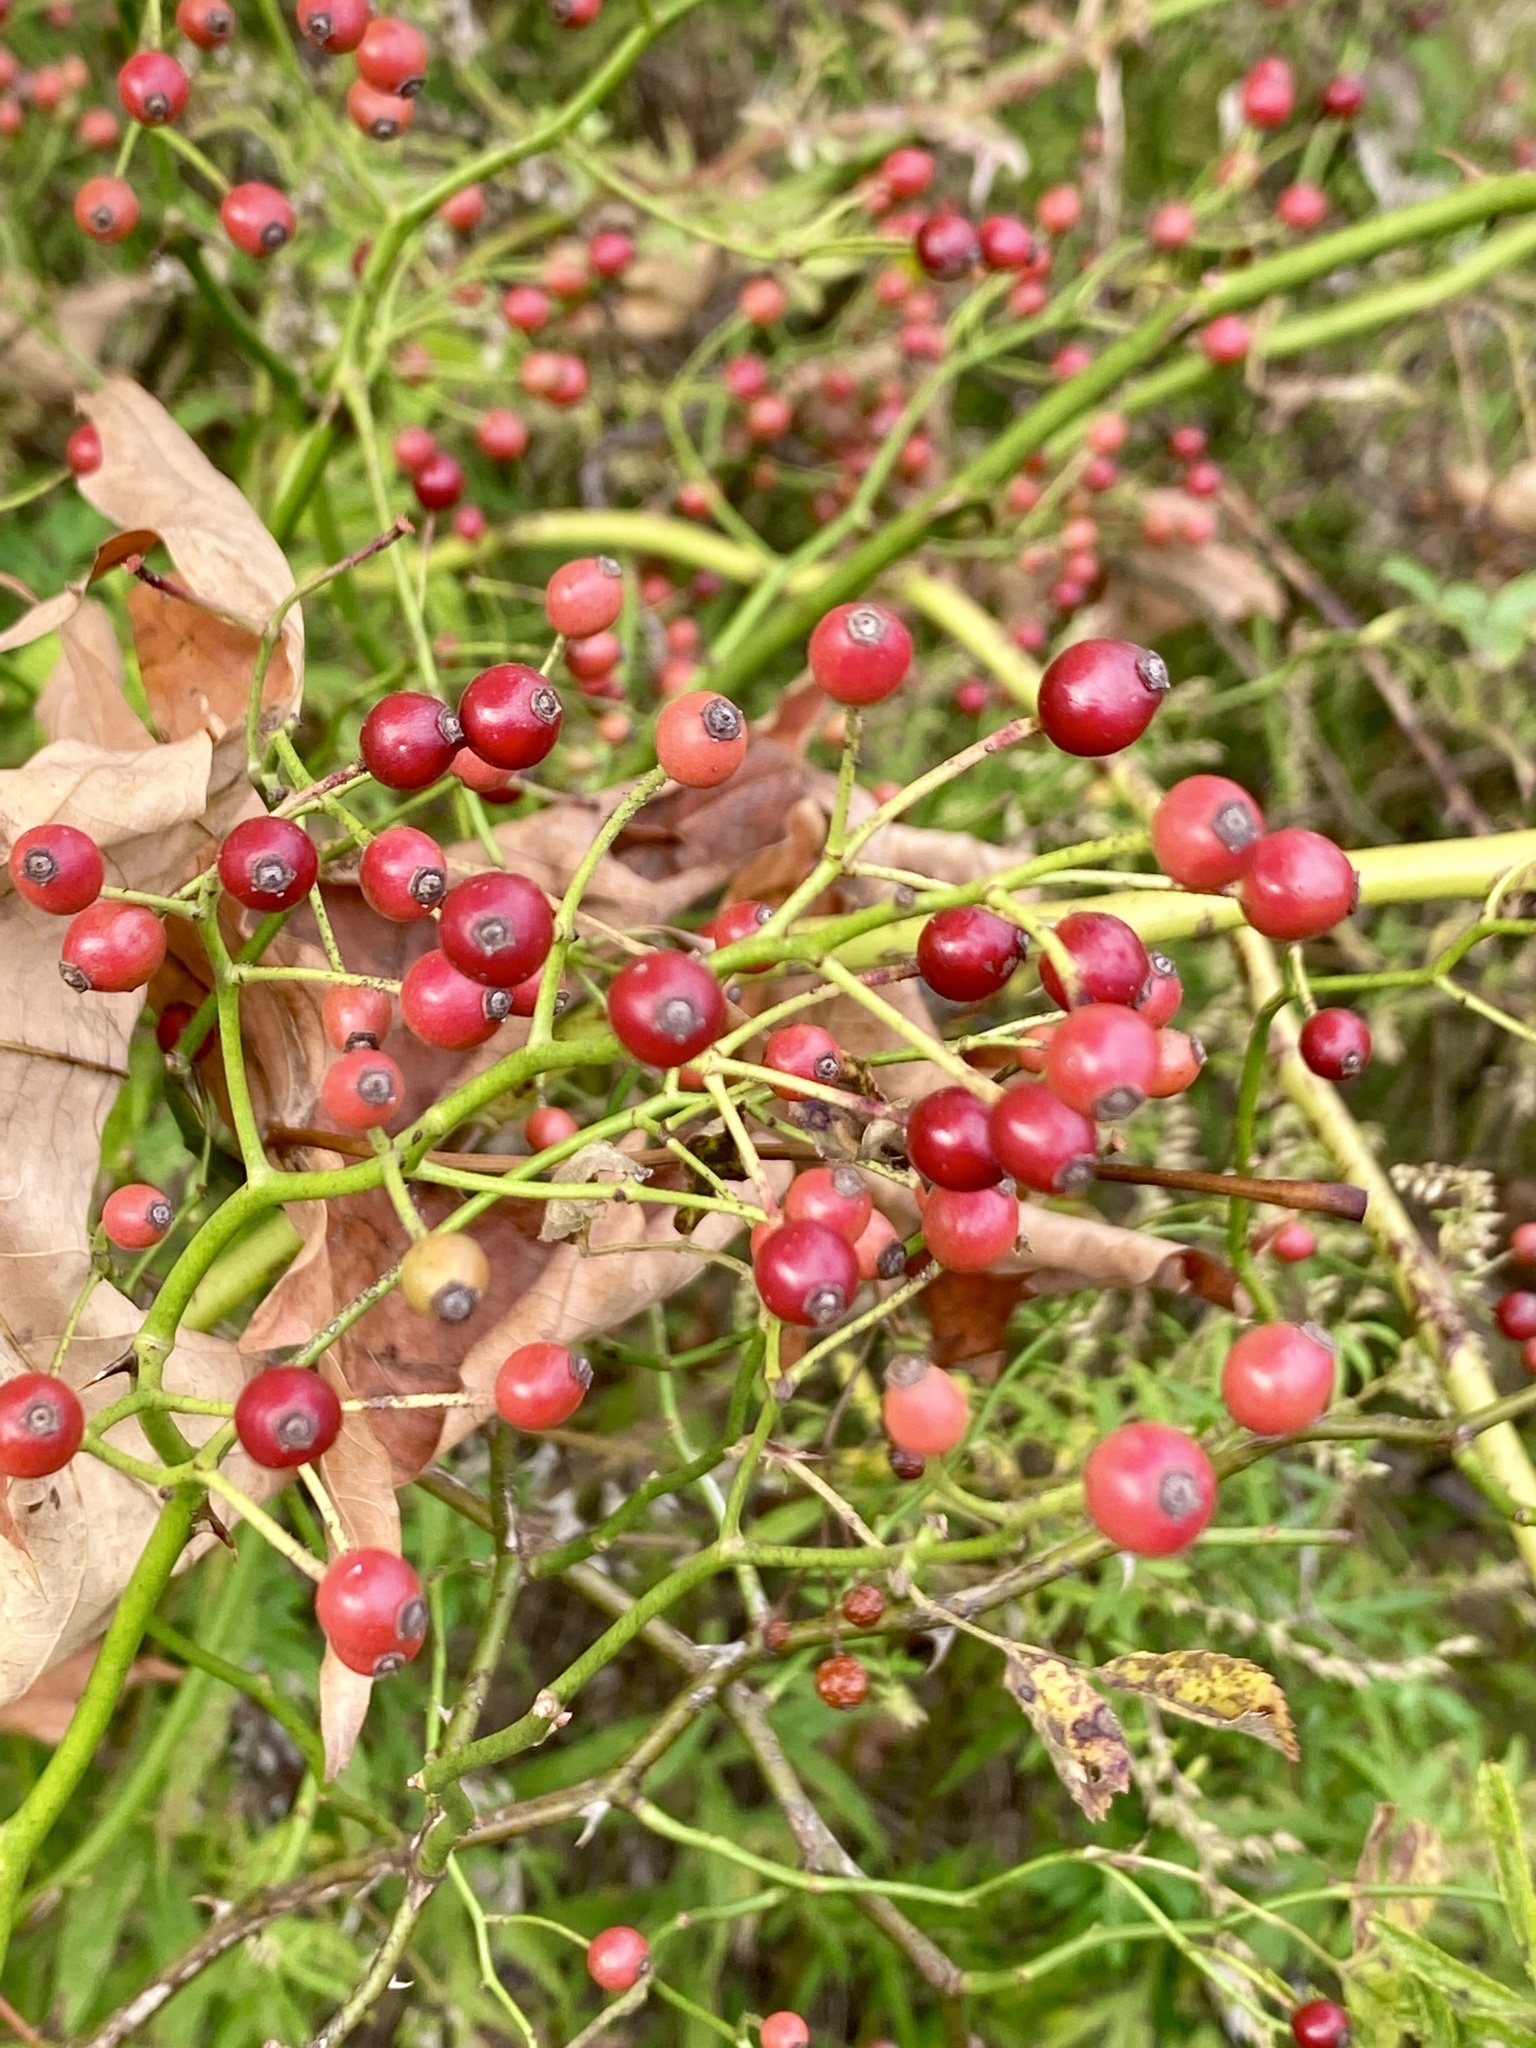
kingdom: Plantae
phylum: Tracheophyta
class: Magnoliopsida
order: Rosales
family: Rosaceae
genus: Rosa
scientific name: Rosa multiflora
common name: Multiflora rose
